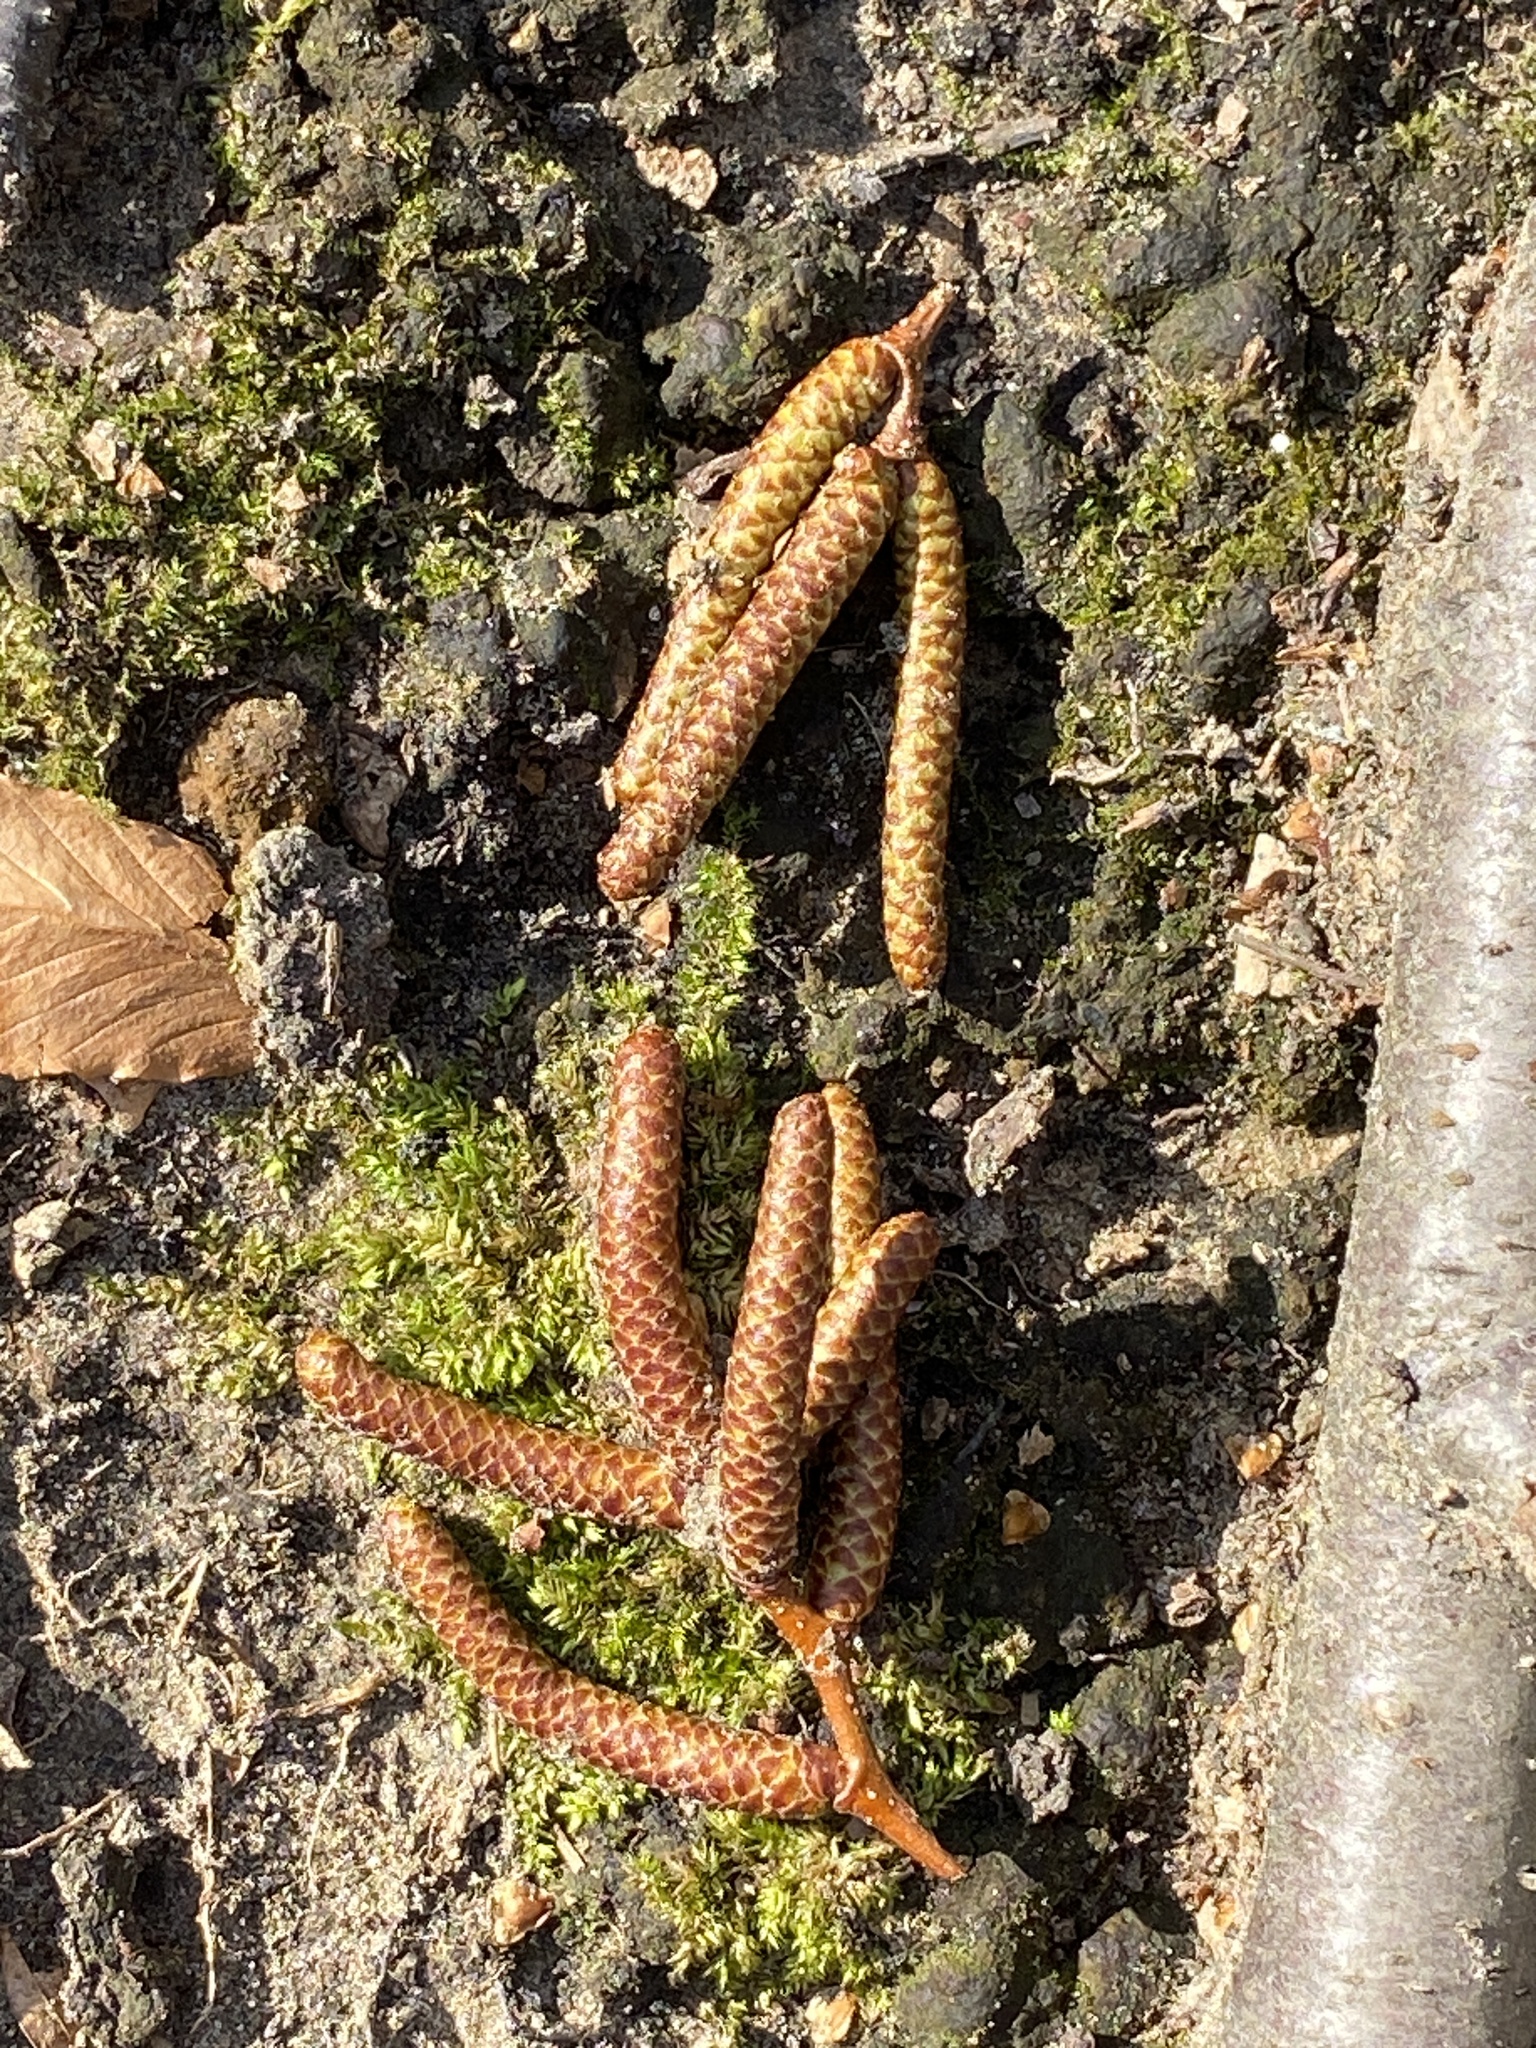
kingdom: Plantae
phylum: Tracheophyta
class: Magnoliopsida
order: Fagales
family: Betulaceae
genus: Betula
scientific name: Betula lenta
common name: Black birch
